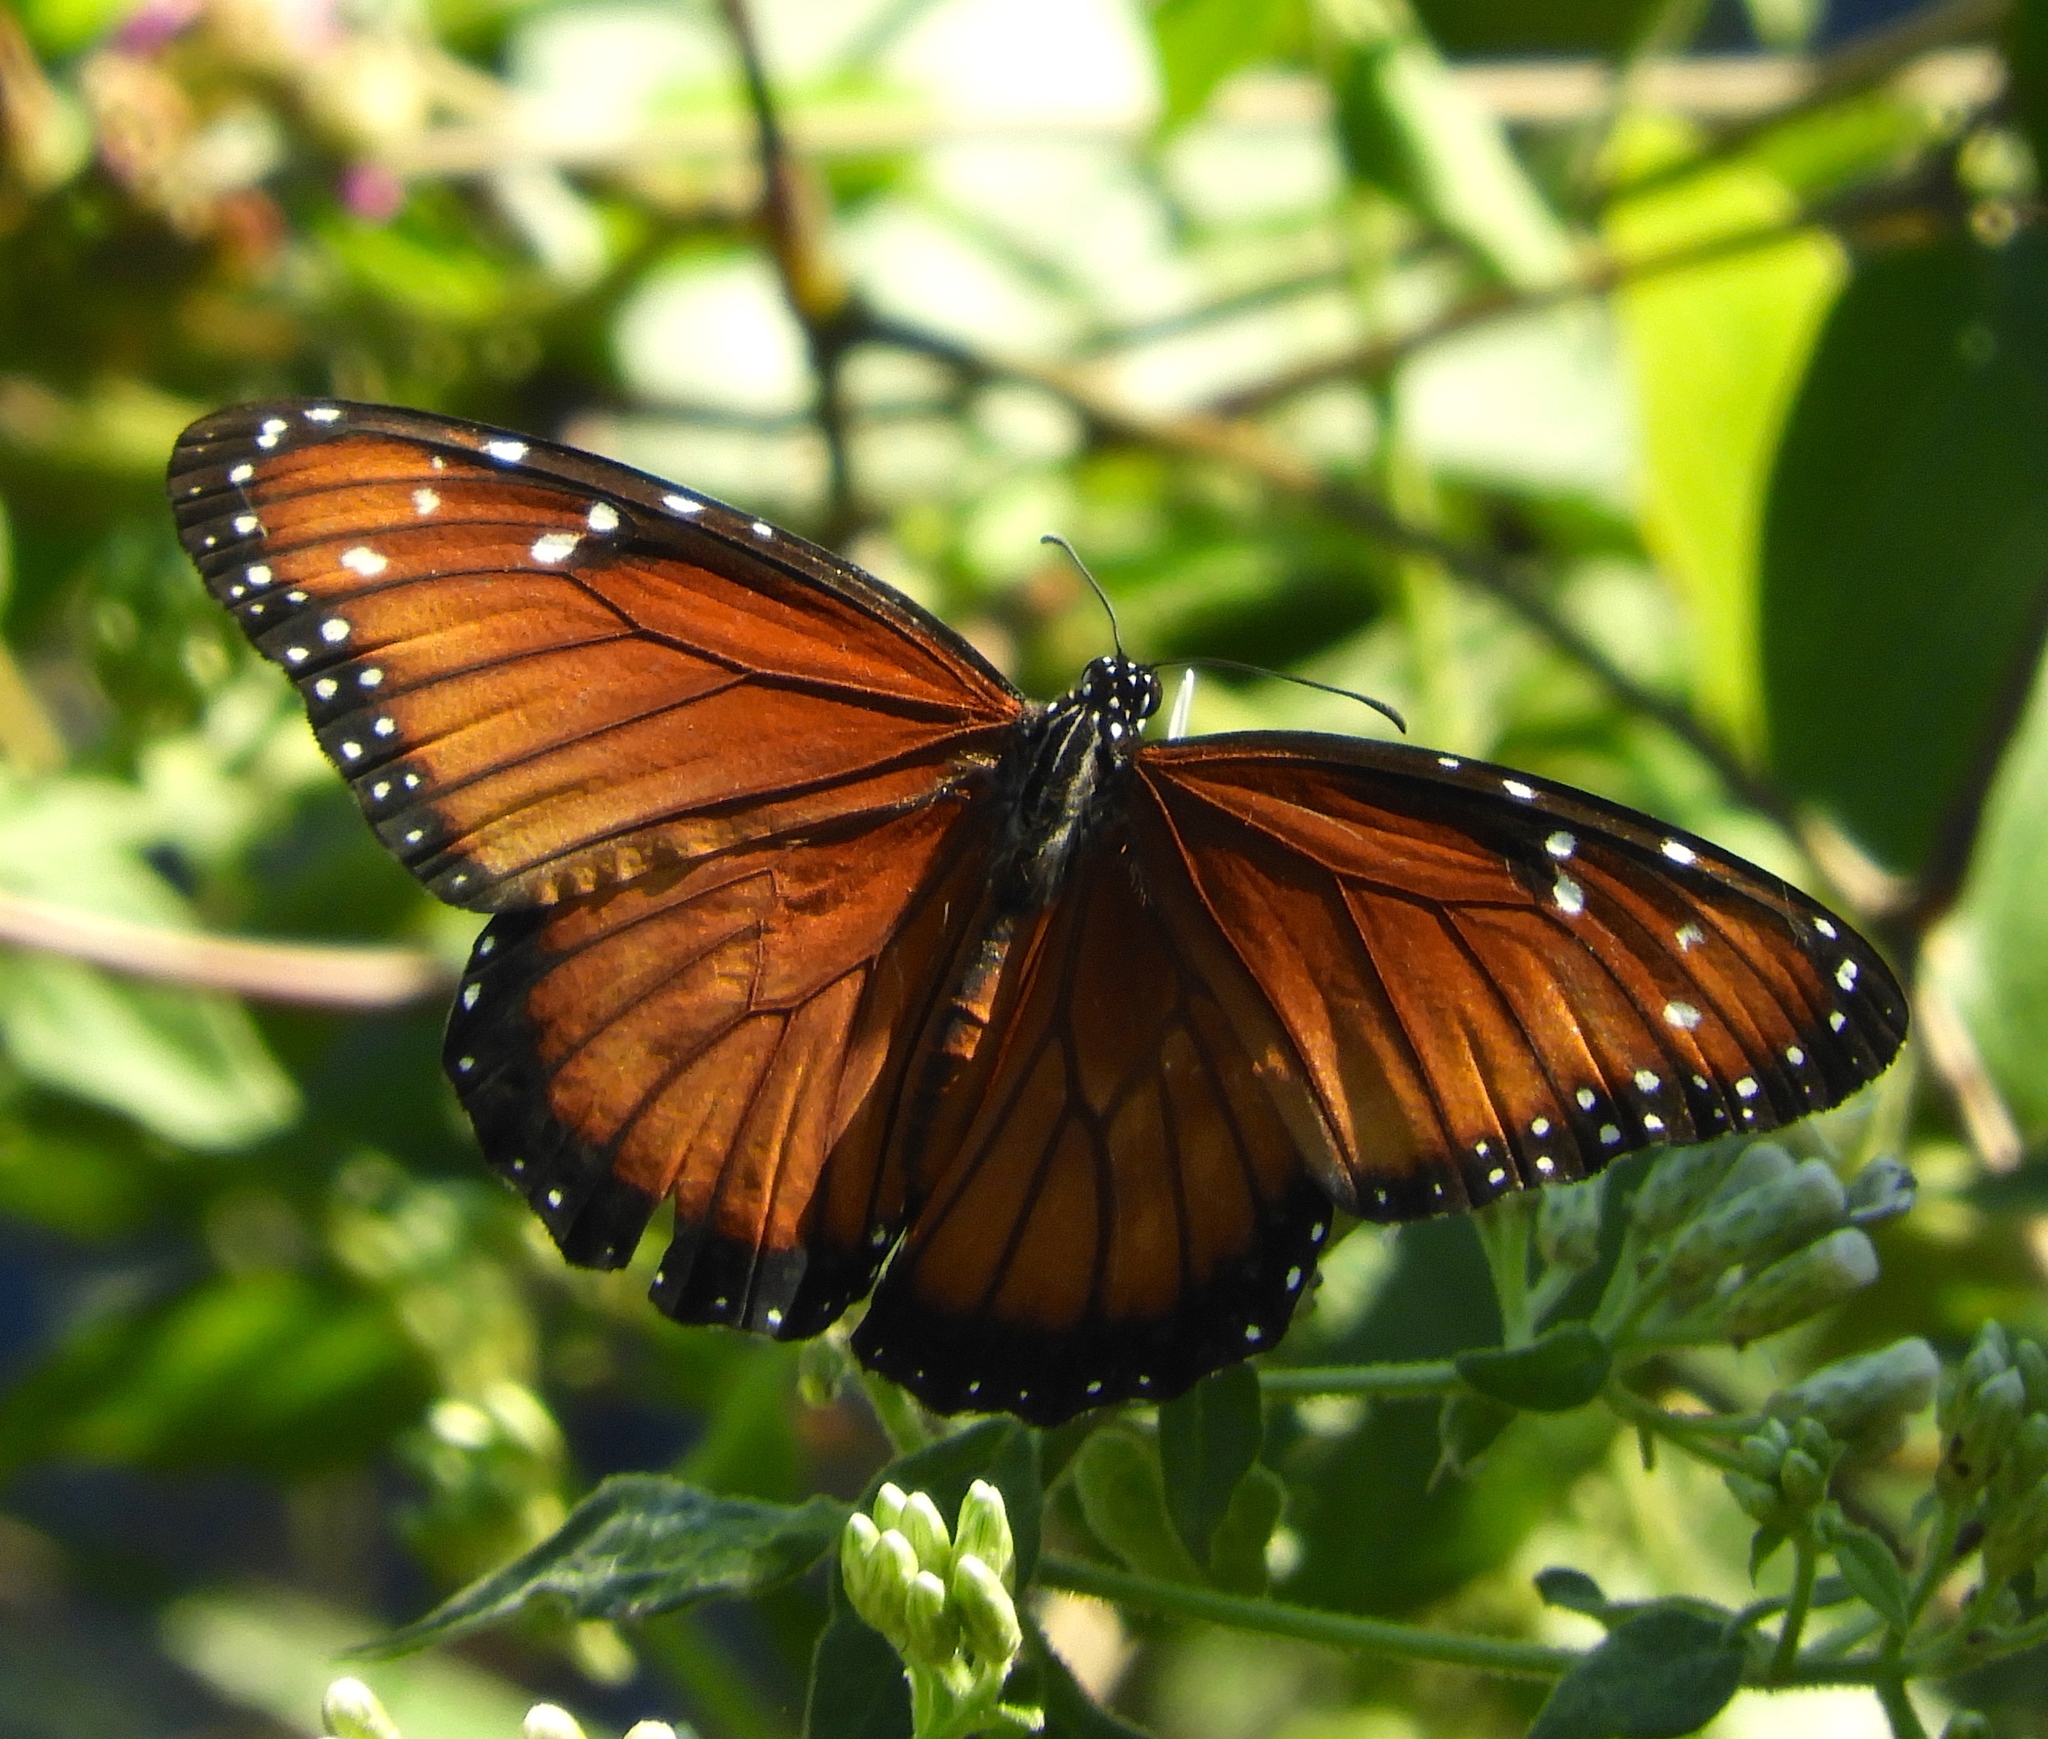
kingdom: Animalia
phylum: Arthropoda
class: Insecta
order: Lepidoptera
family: Nymphalidae
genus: Danaus
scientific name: Danaus eresimus
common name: Soldier
